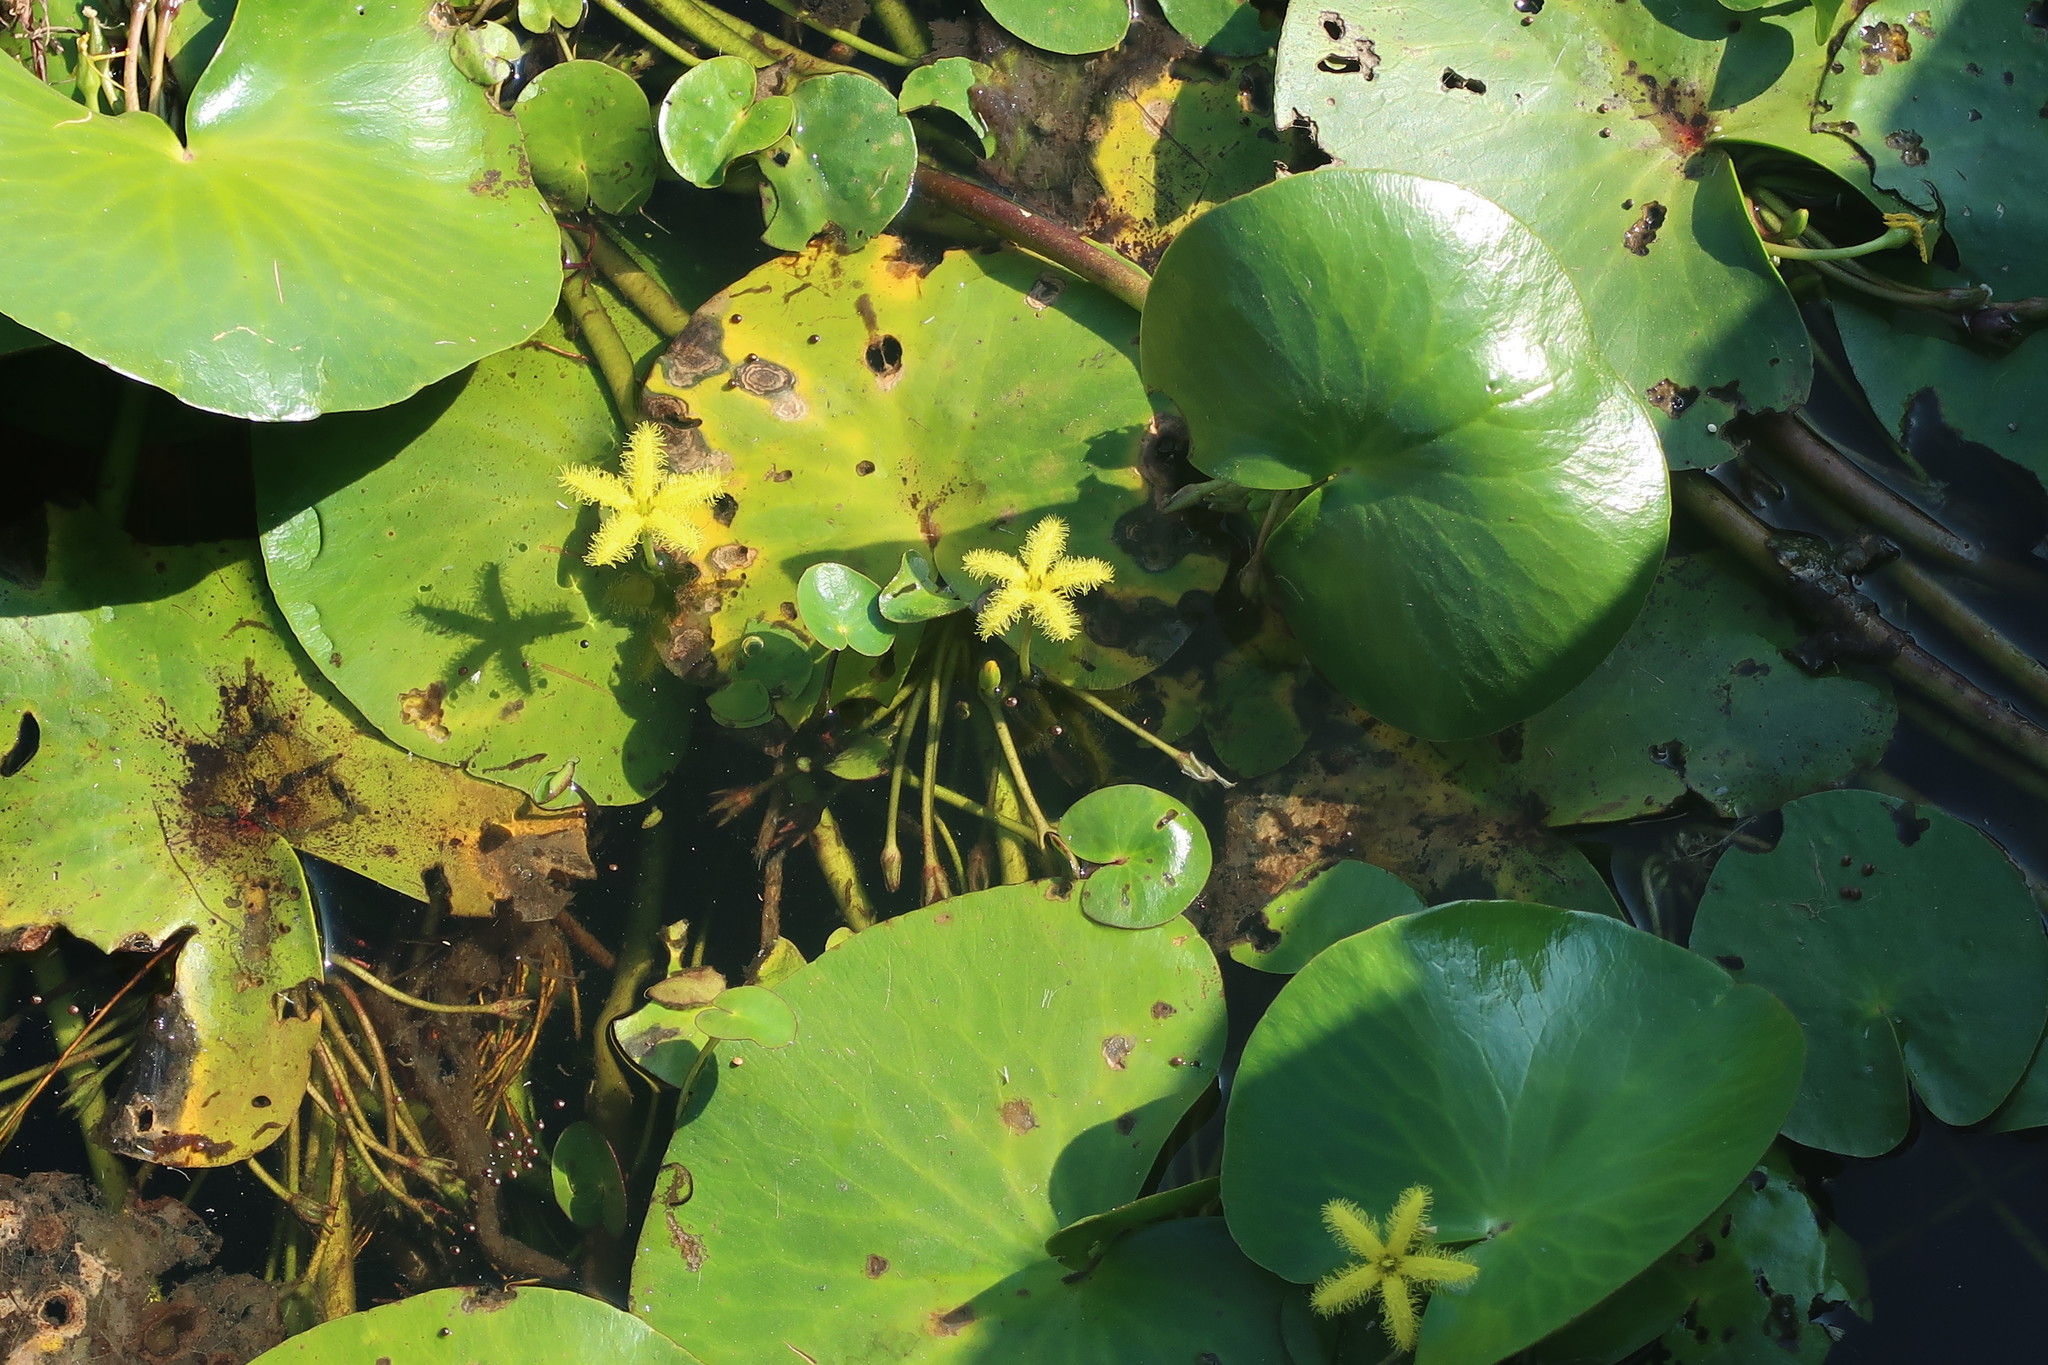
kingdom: Plantae
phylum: Tracheophyta
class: Magnoliopsida
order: Asterales
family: Menyanthaceae
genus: Nymphoides
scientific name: Nymphoides thunbergiana
